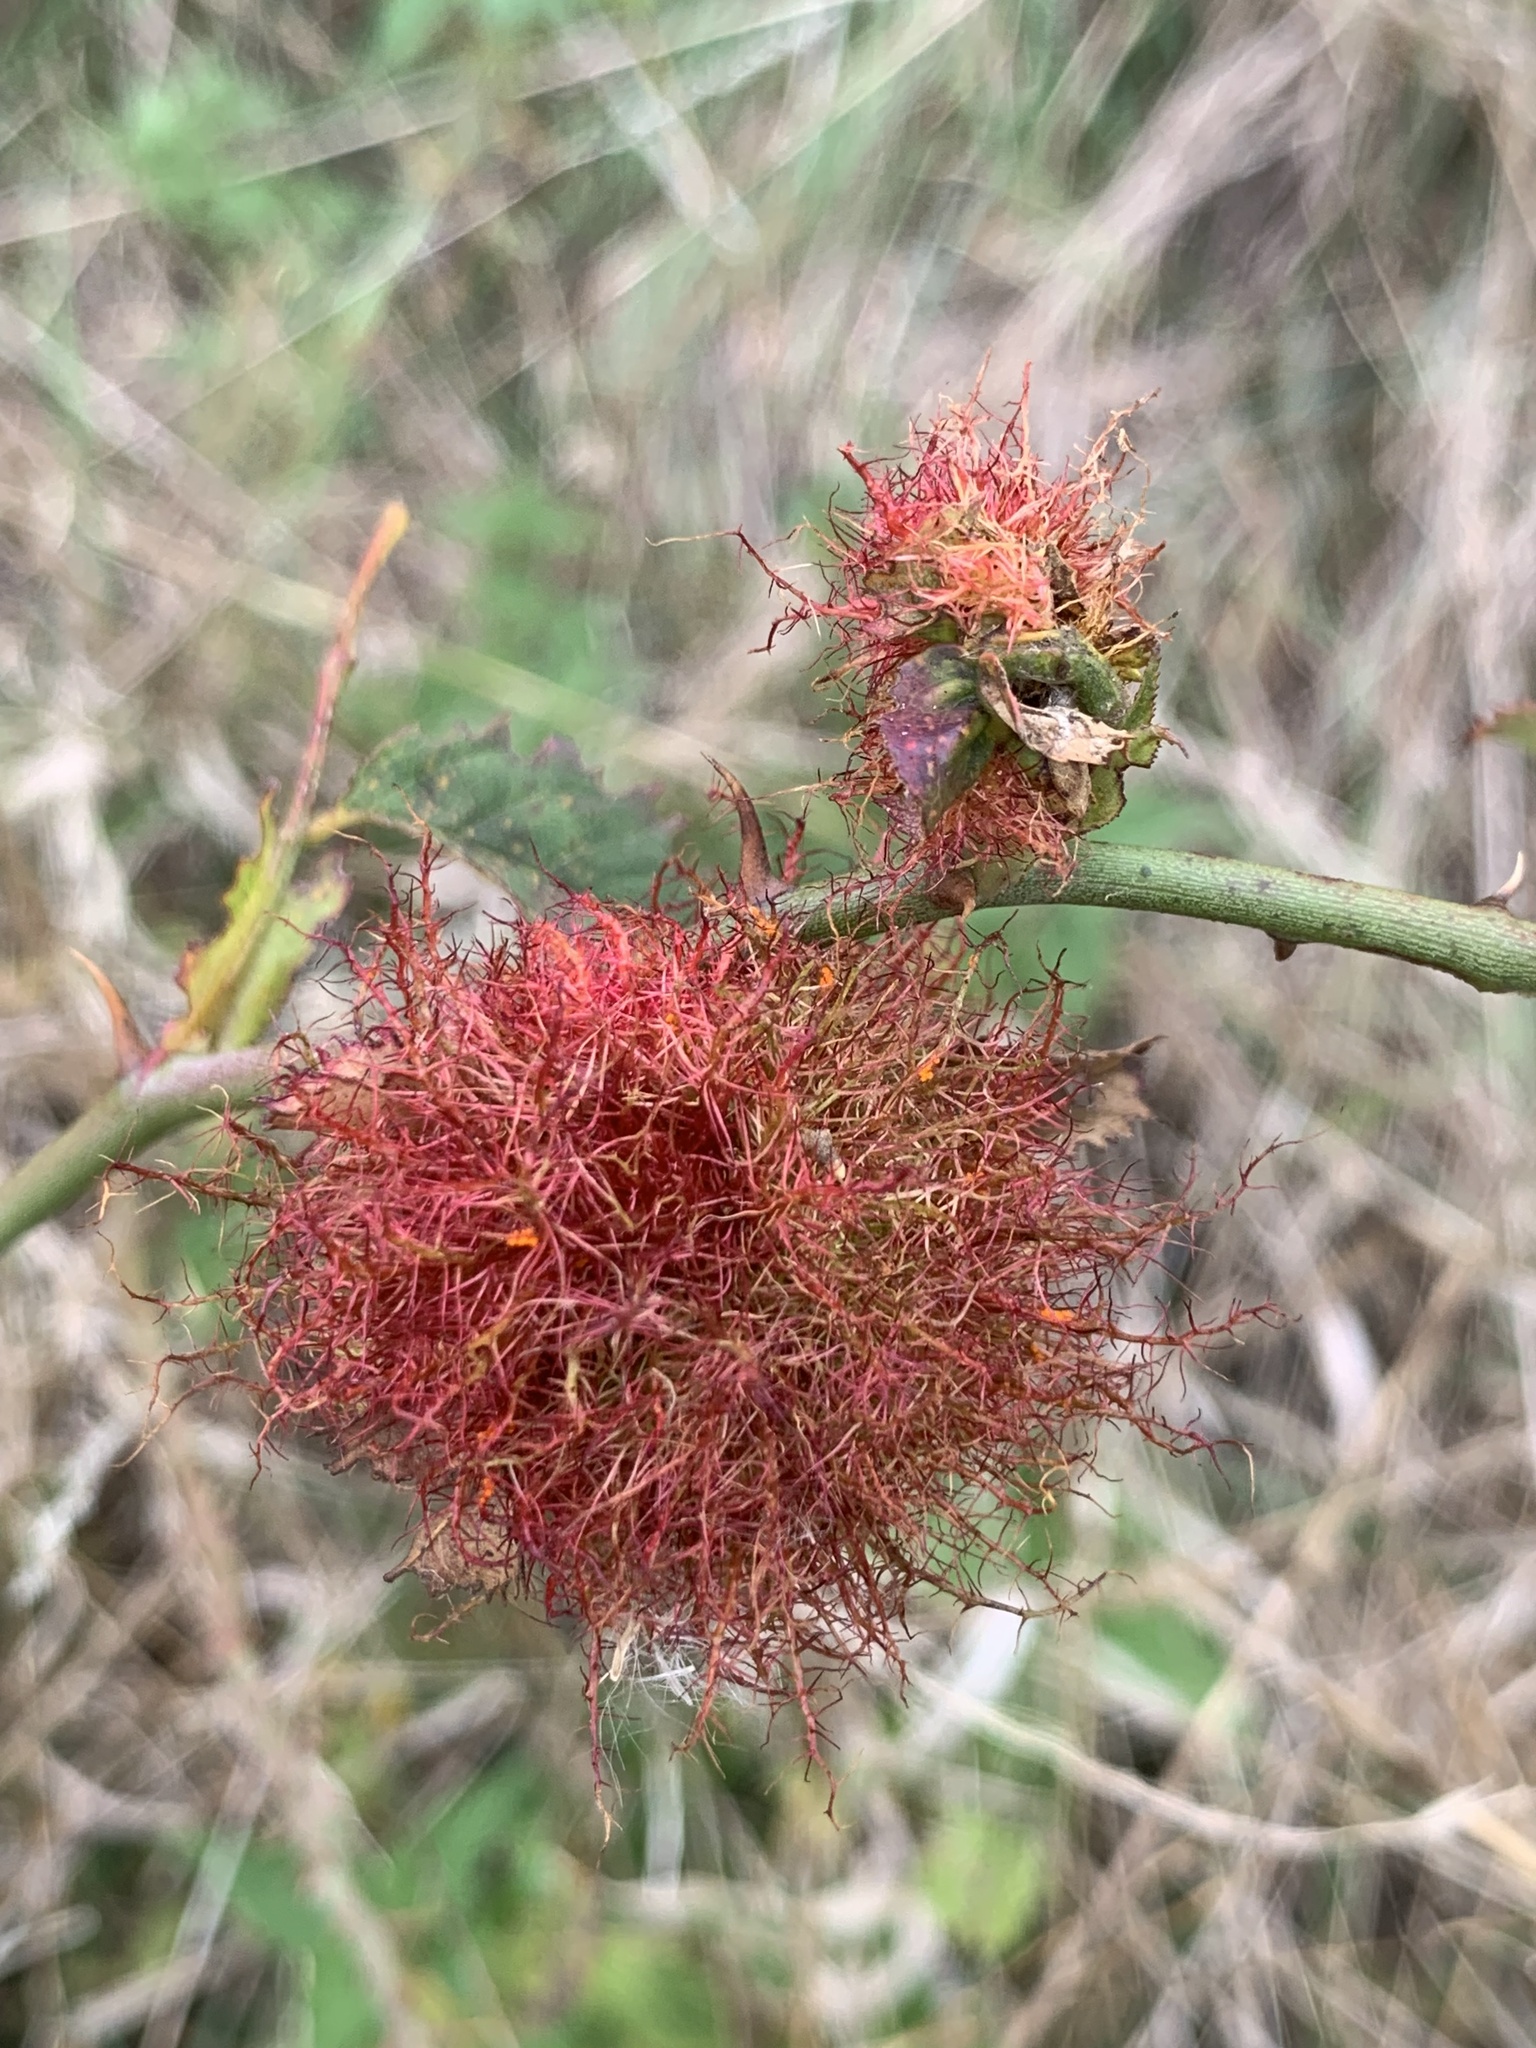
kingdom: Animalia
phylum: Arthropoda
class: Insecta
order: Hymenoptera
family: Cynipidae
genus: Diplolepis
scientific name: Diplolepis rosae
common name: Bedeguar gall
